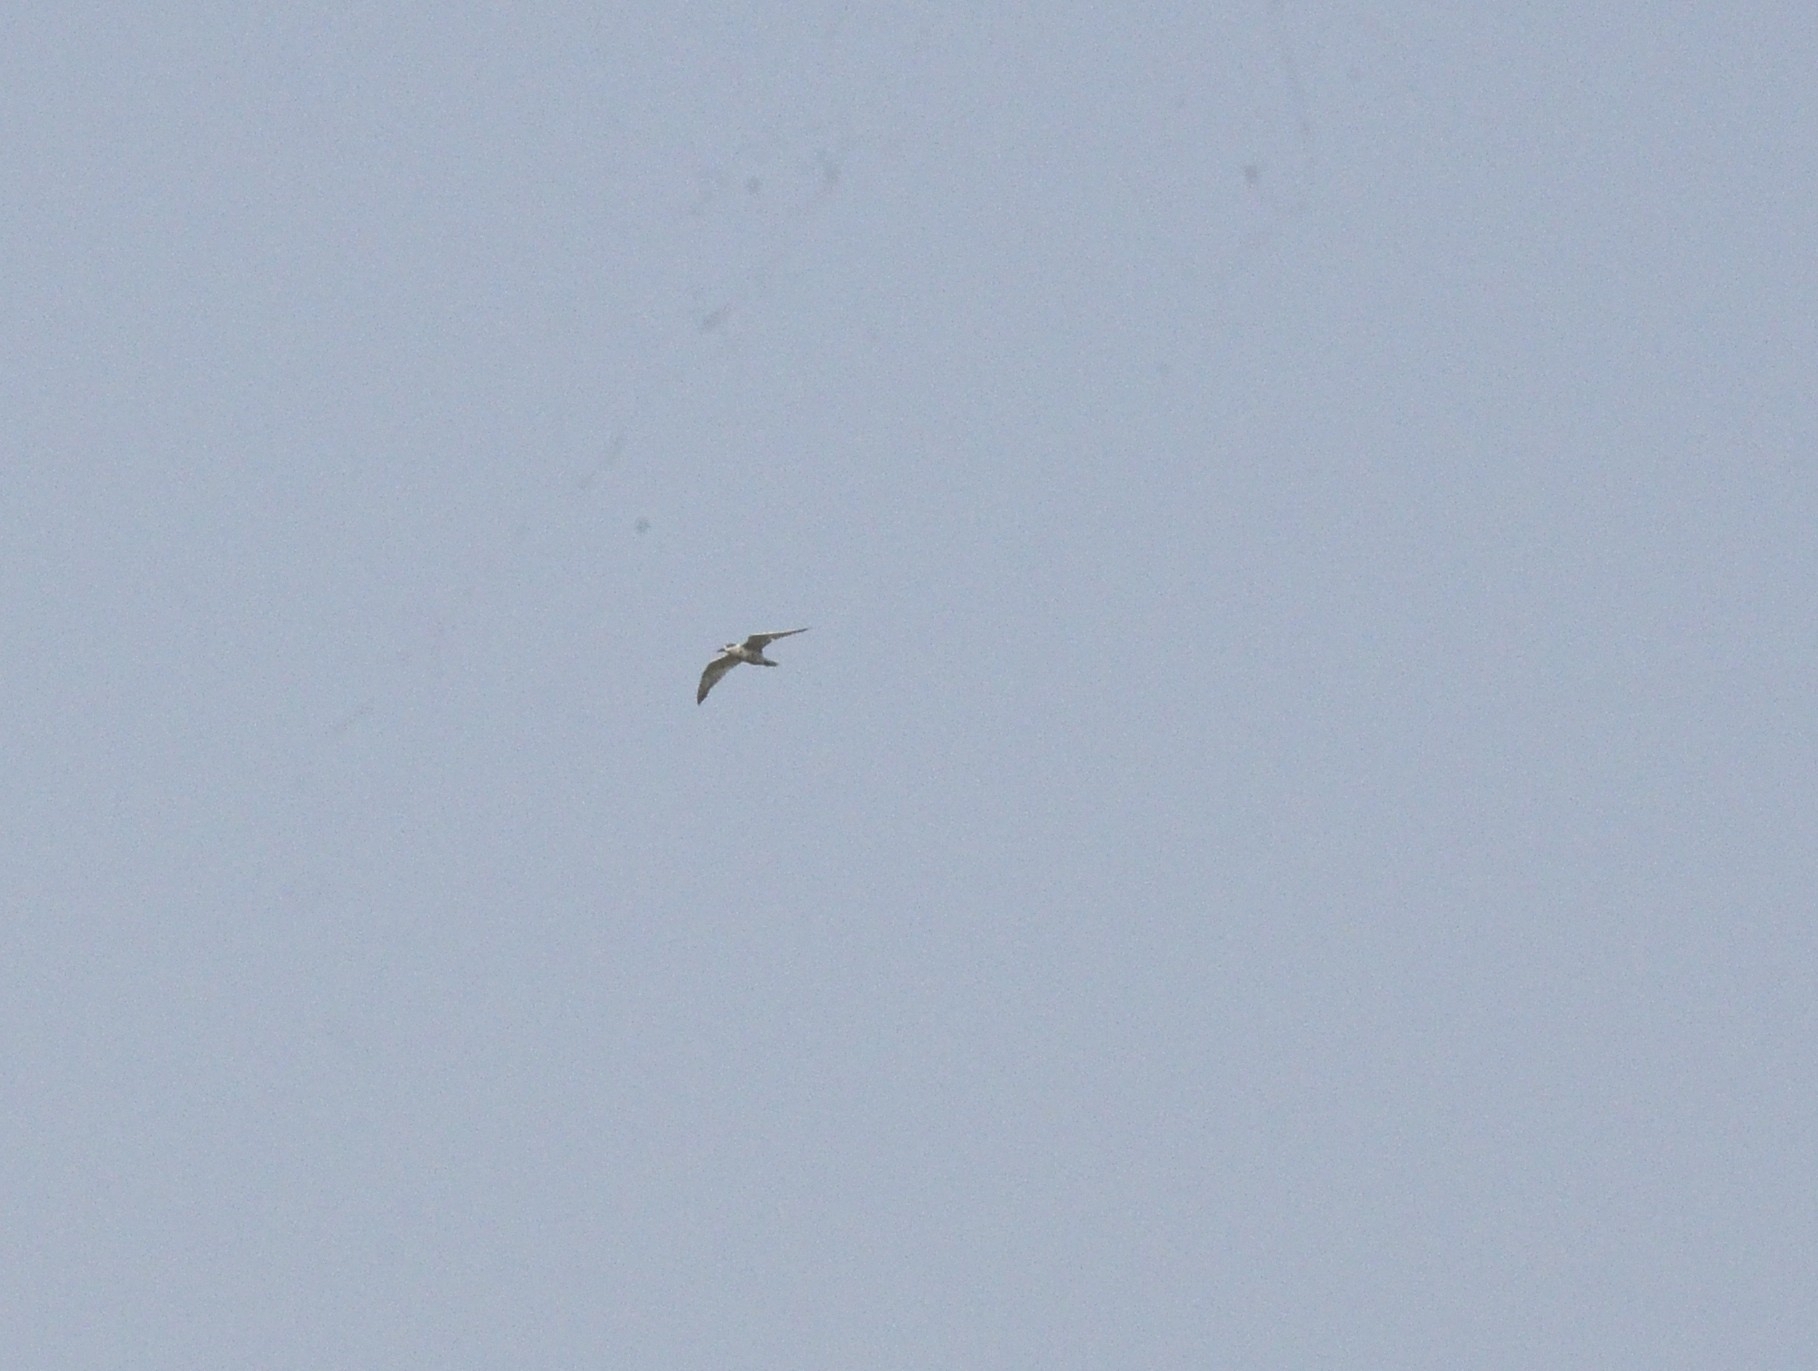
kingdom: Animalia
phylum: Chordata
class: Aves
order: Charadriiformes
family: Laridae
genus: Chlidonias
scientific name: Chlidonias hybrida
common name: Whiskered tern
